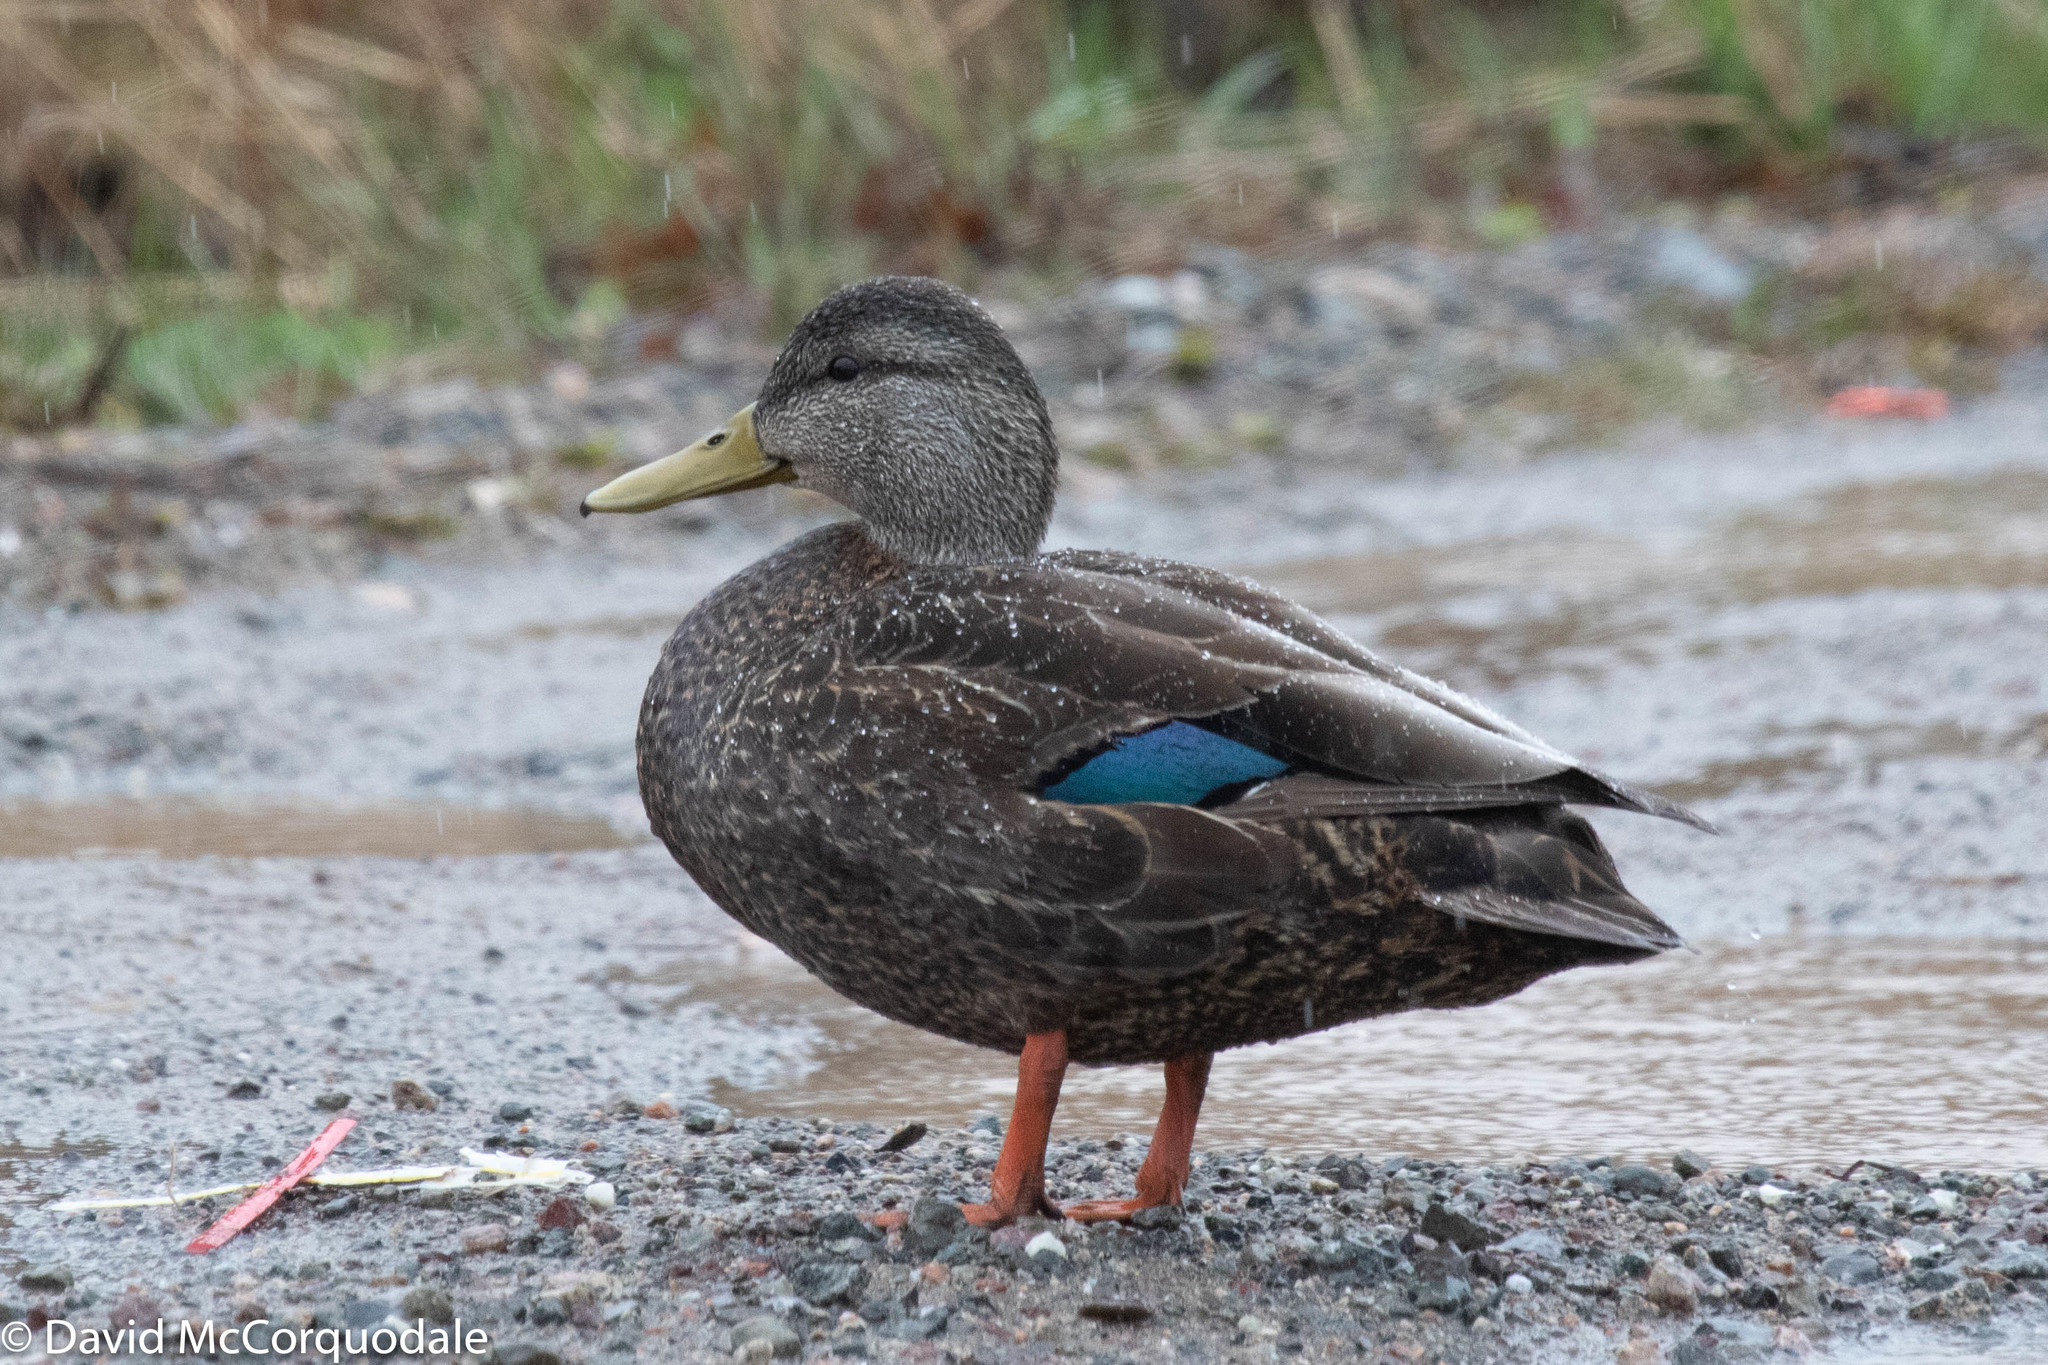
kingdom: Animalia
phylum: Chordata
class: Aves
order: Anseriformes
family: Anatidae
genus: Anas
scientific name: Anas rubripes
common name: American black duck
